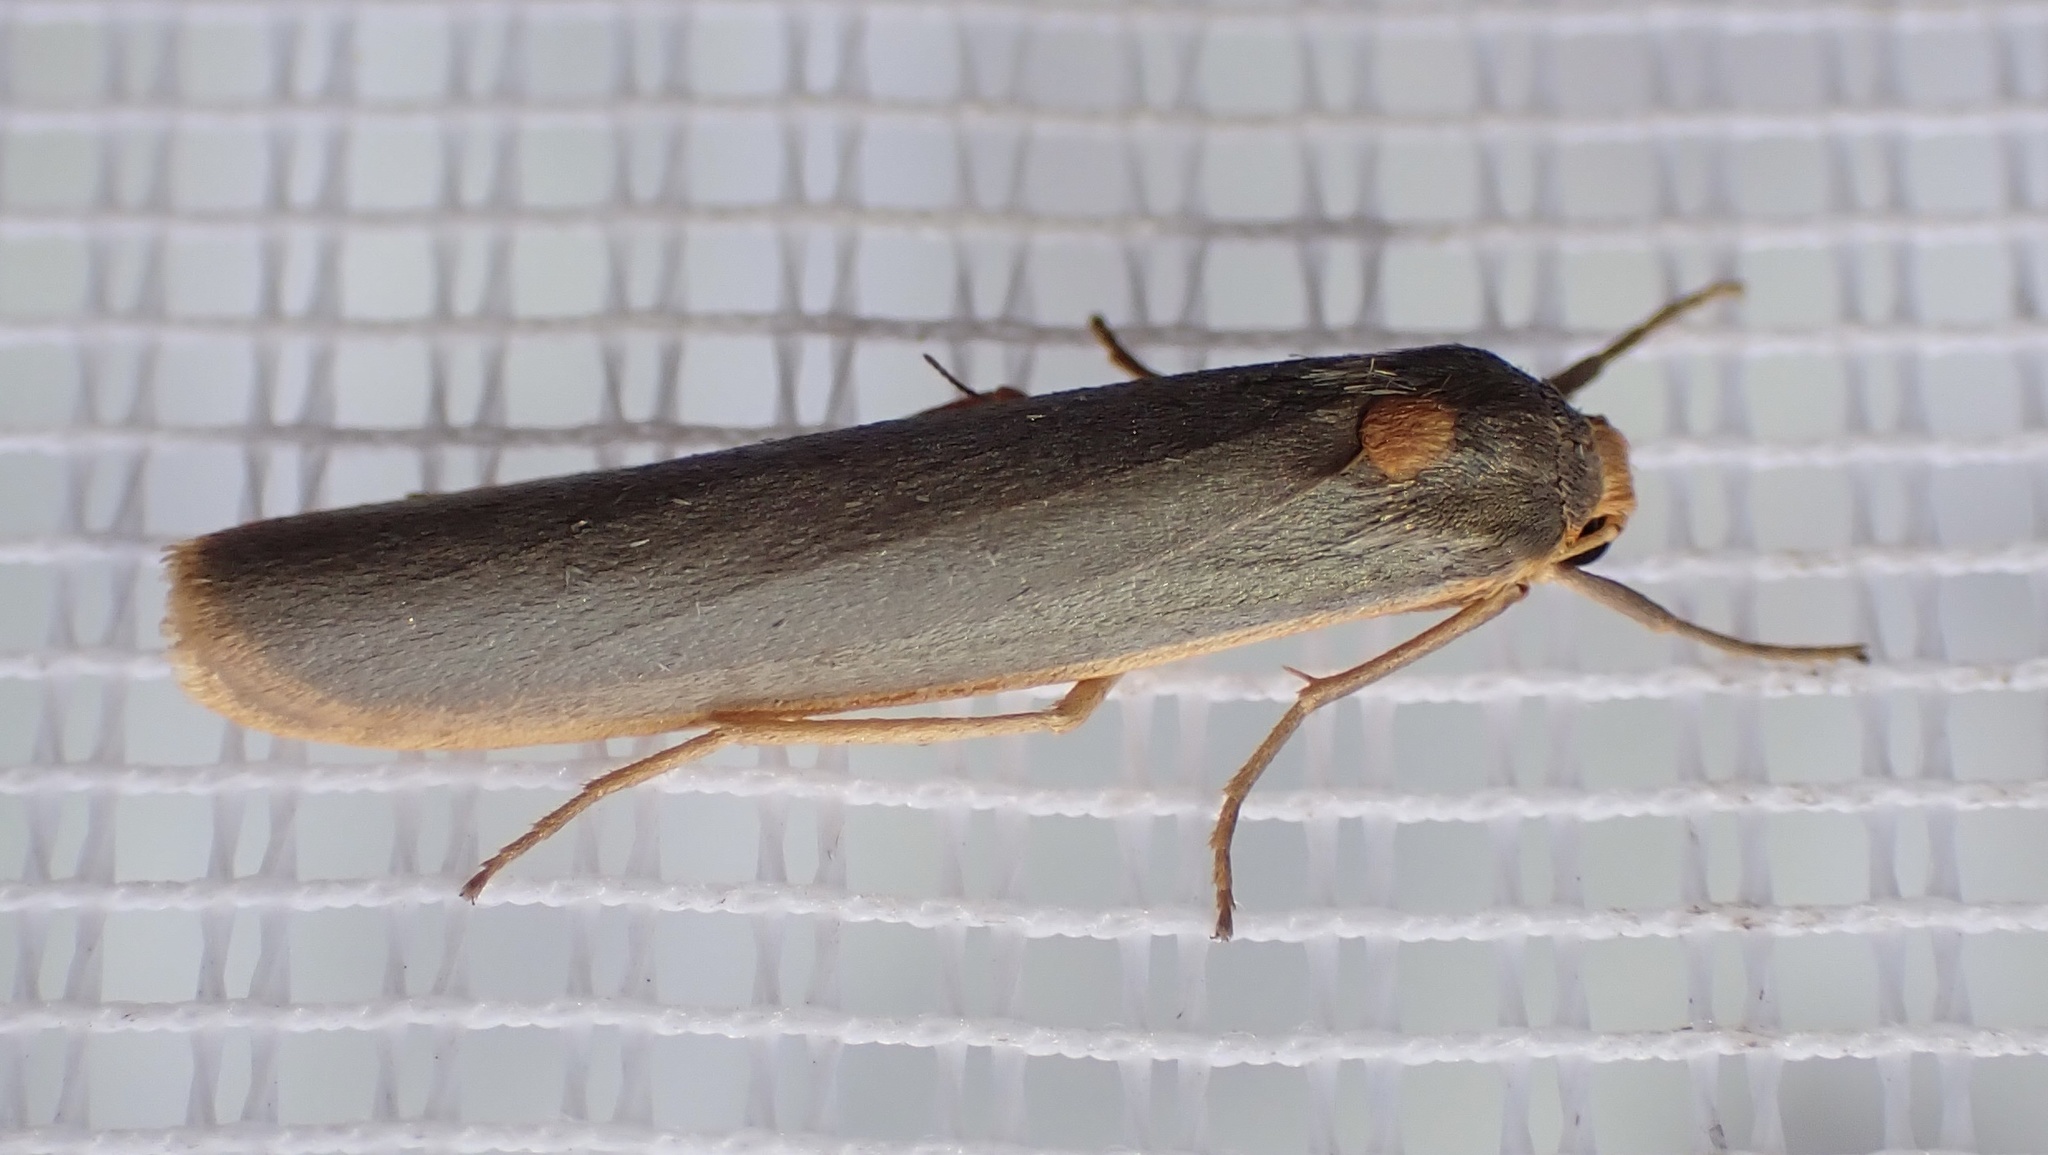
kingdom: Animalia
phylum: Arthropoda
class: Insecta
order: Lepidoptera
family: Erebidae
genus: Sozusa
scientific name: Sozusa scutellata
